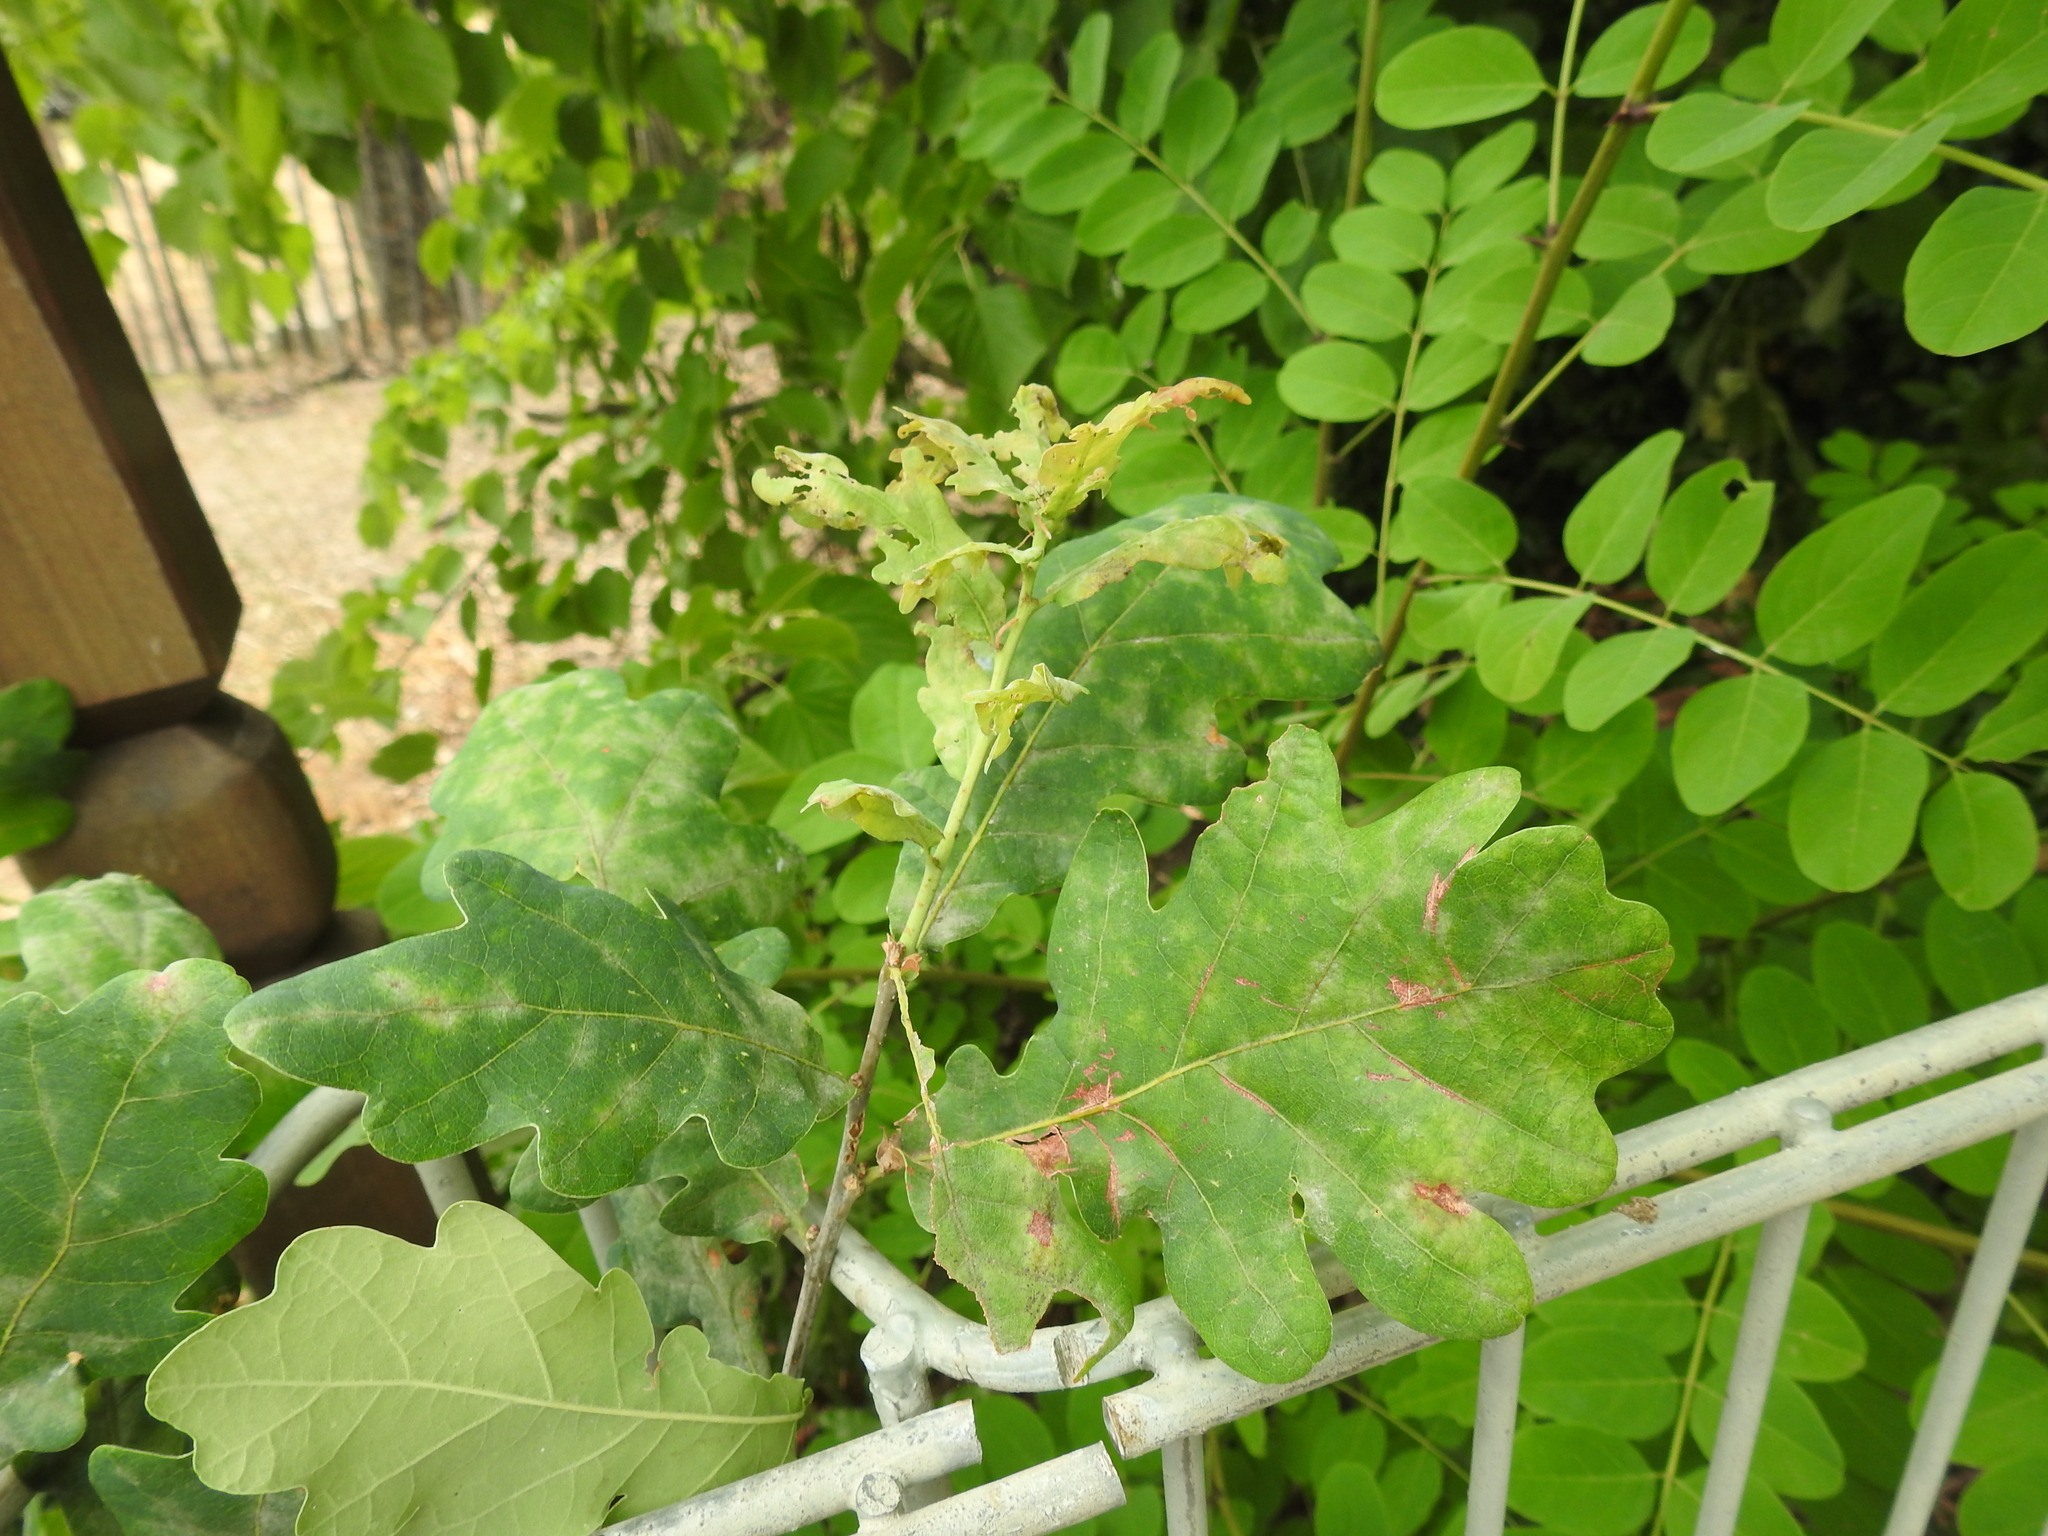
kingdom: Plantae
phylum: Tracheophyta
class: Magnoliopsida
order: Fagales
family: Fagaceae
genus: Quercus
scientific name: Quercus robur
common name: Pedunculate oak
